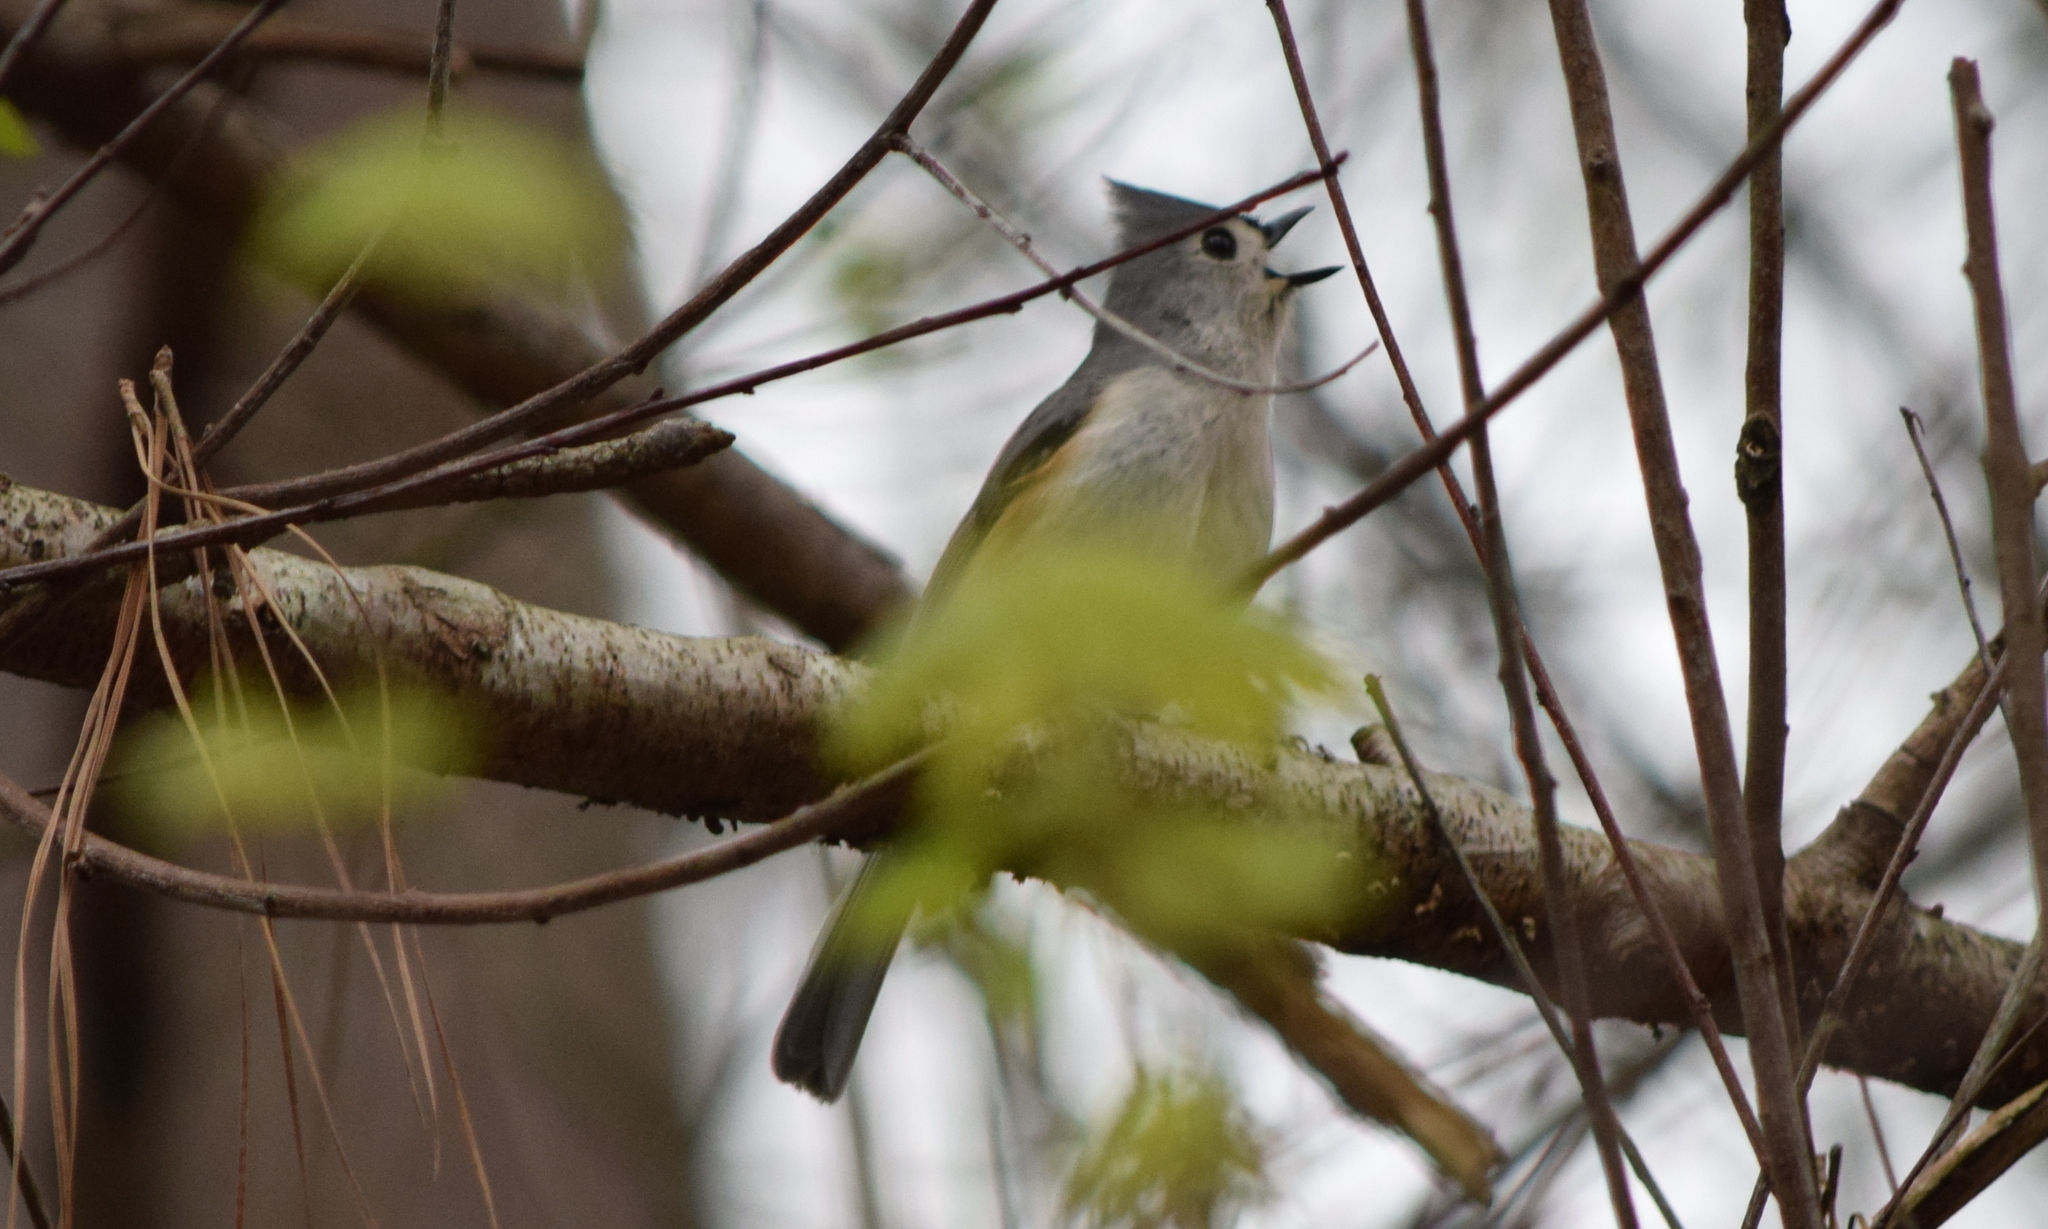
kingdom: Animalia
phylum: Chordata
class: Aves
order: Passeriformes
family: Paridae
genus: Baeolophus
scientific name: Baeolophus bicolor
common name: Tufted titmouse
